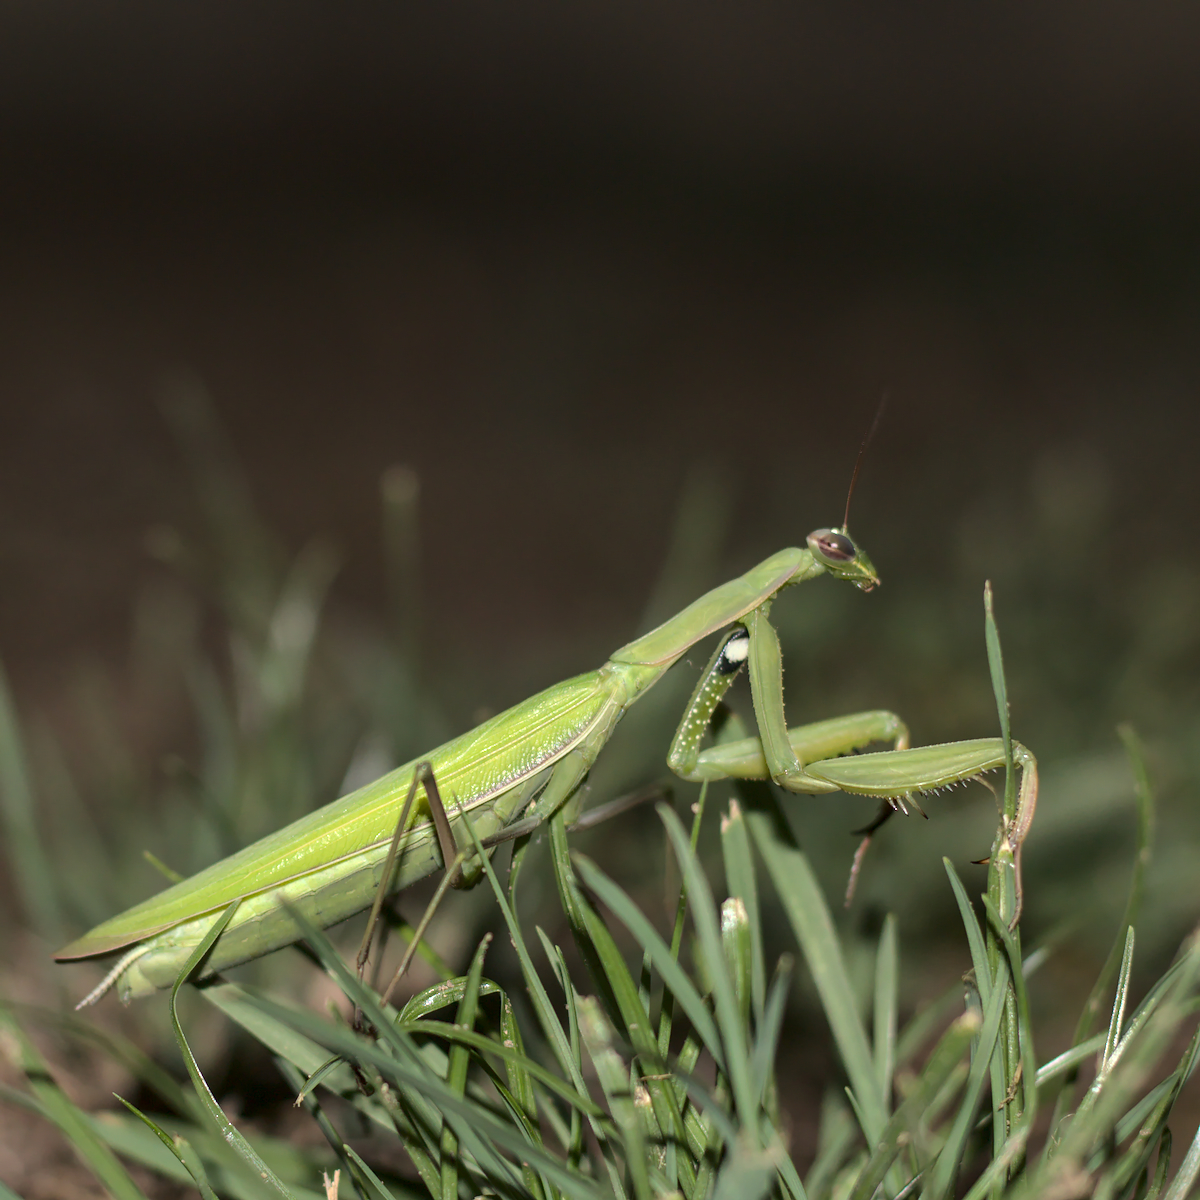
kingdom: Animalia
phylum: Arthropoda
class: Insecta
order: Mantodea
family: Mantidae
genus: Mantis
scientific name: Mantis religiosa
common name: Praying mantis
